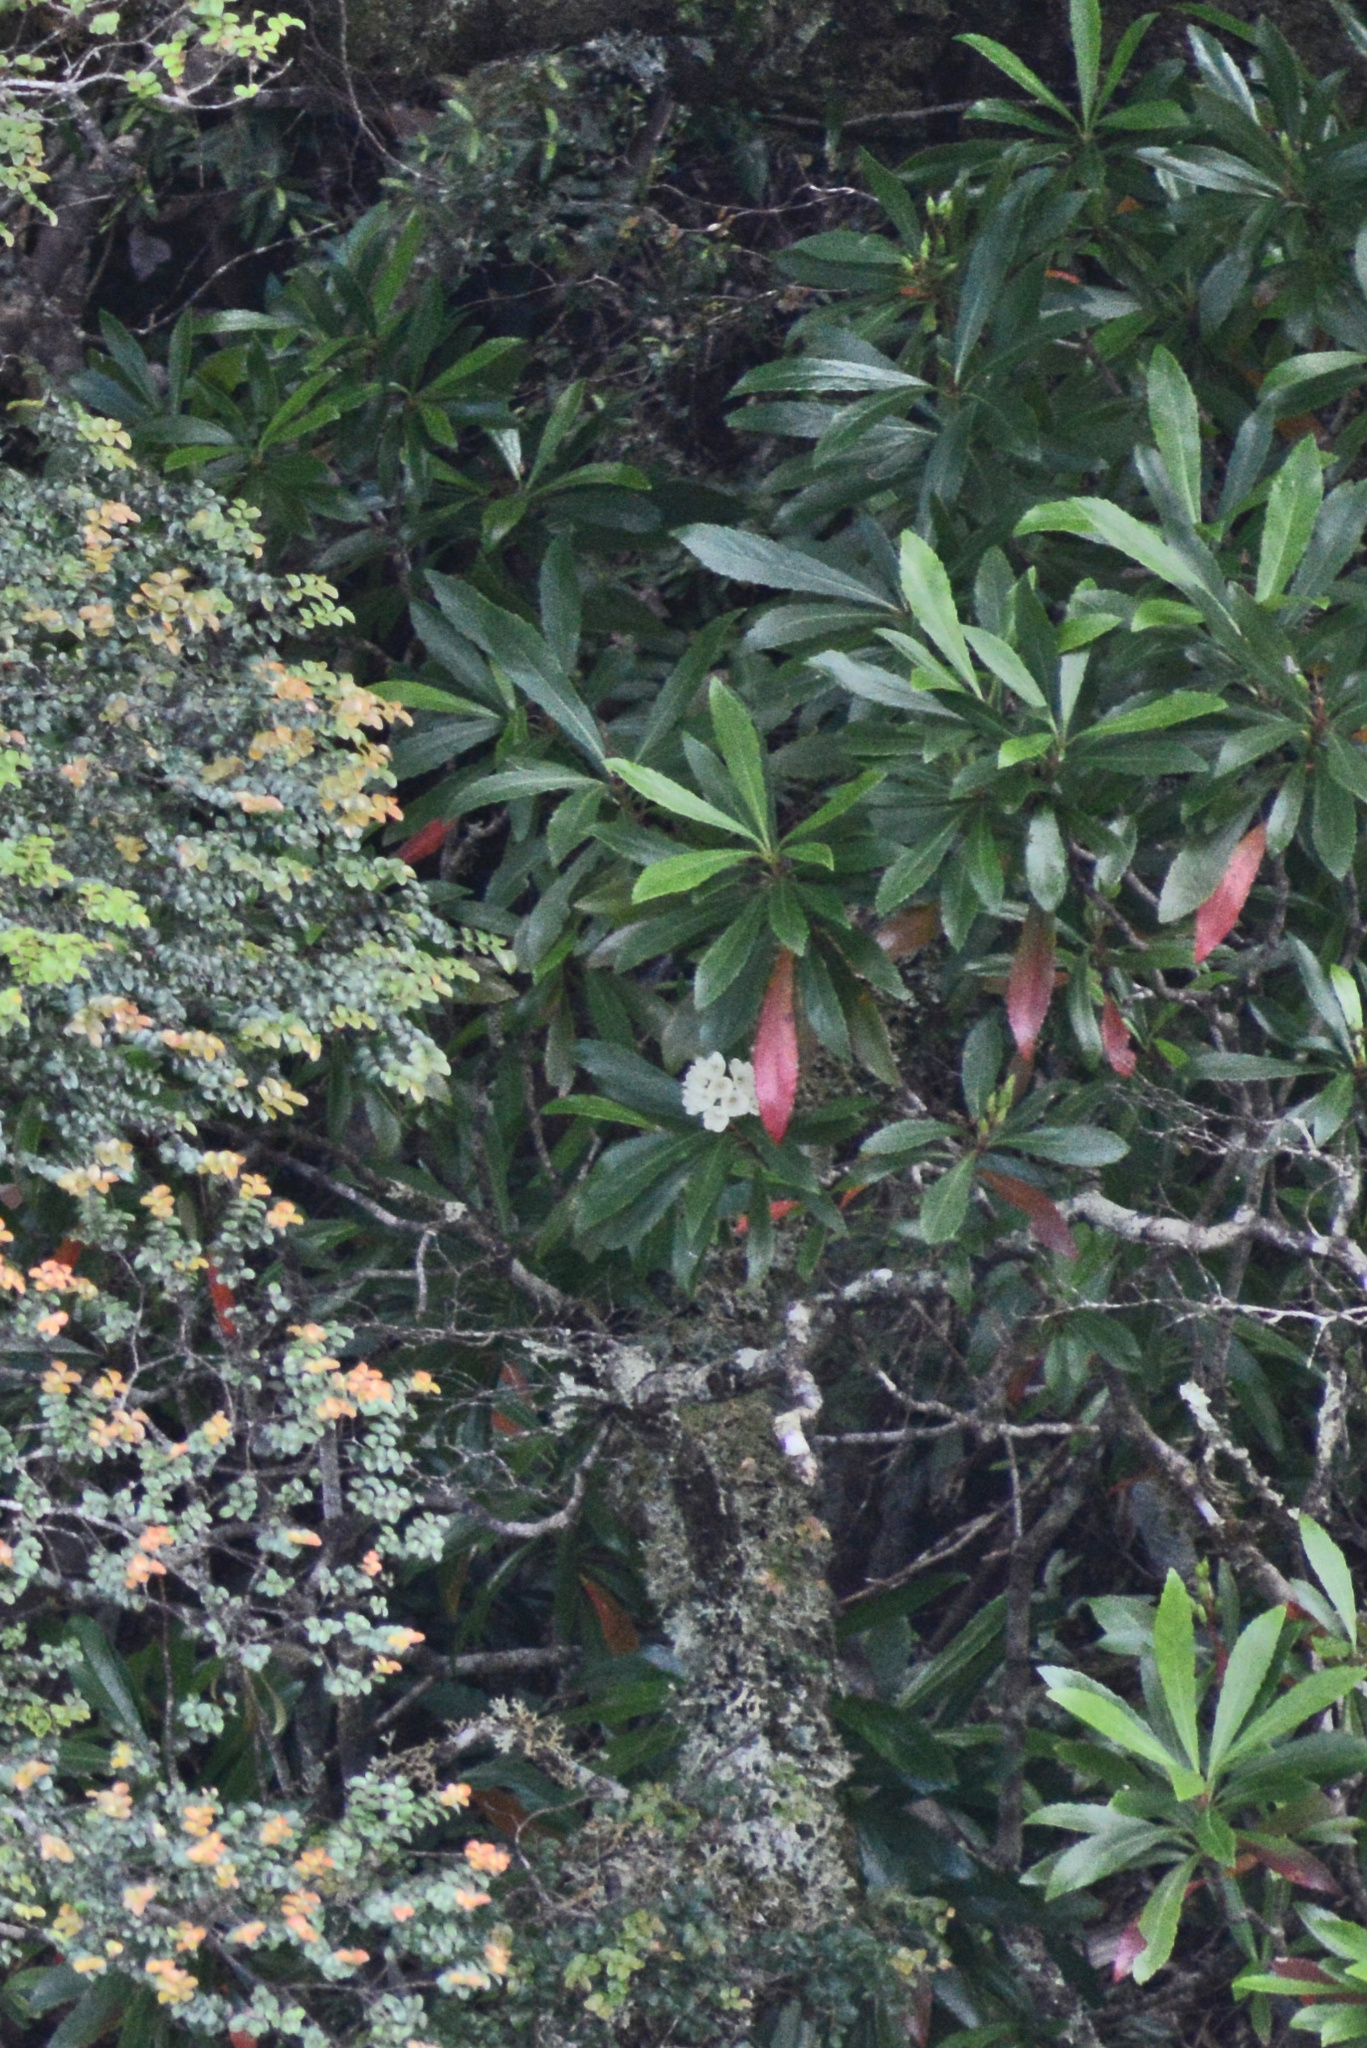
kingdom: Plantae
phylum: Tracheophyta
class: Magnoliopsida
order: Escalloniales
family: Escalloniaceae
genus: Anopterus
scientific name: Anopterus glandulosus
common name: Tasmanian-laurel
